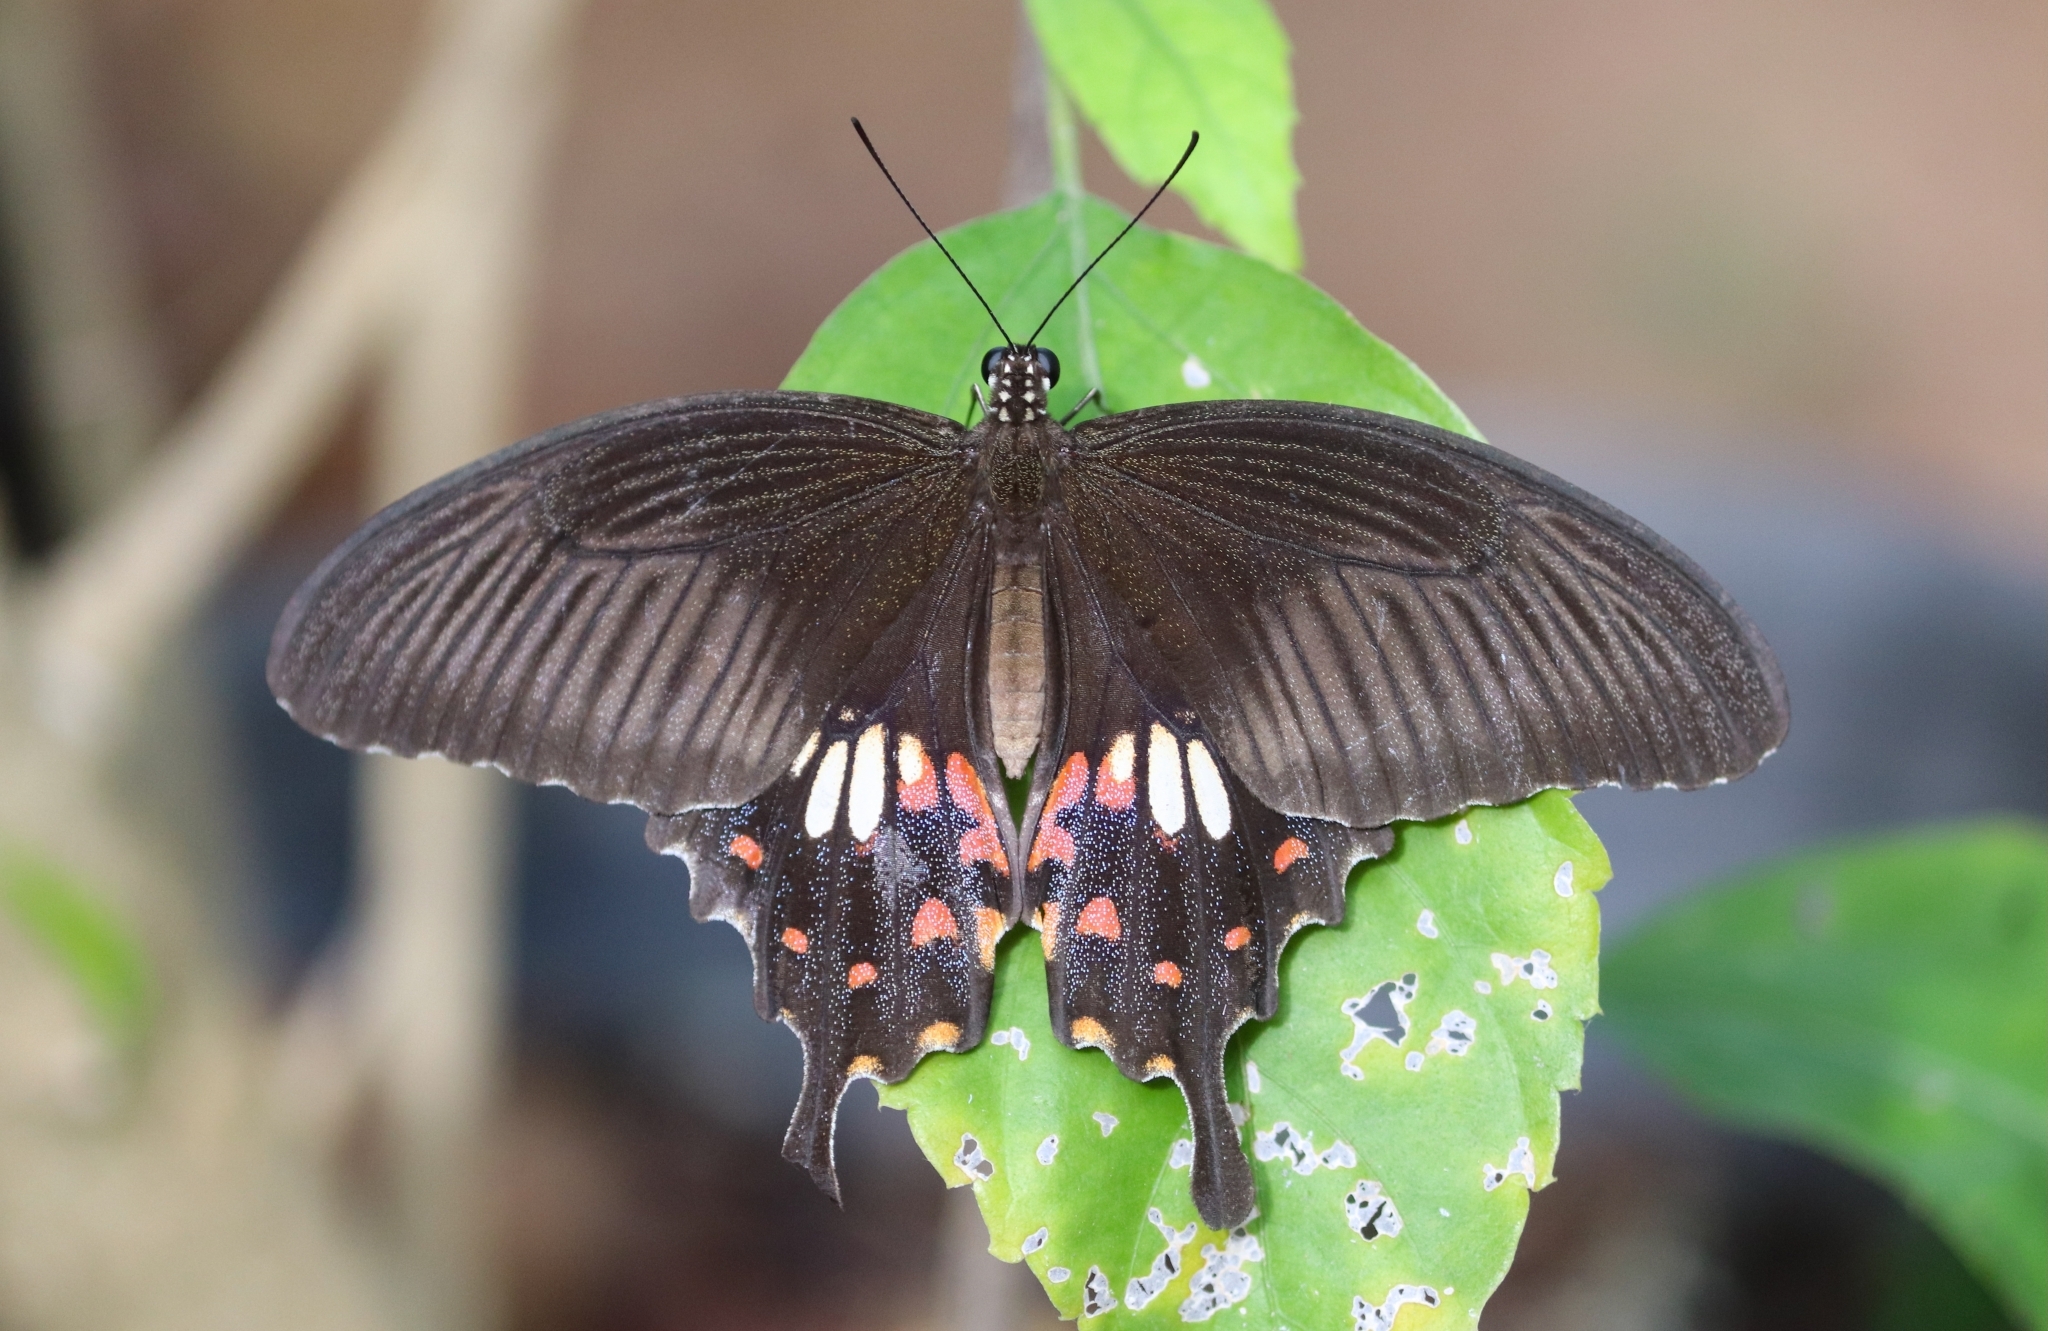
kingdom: Animalia
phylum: Arthropoda
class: Insecta
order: Lepidoptera
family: Papilionidae
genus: Papilio
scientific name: Papilio polytes
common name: Common mormon
